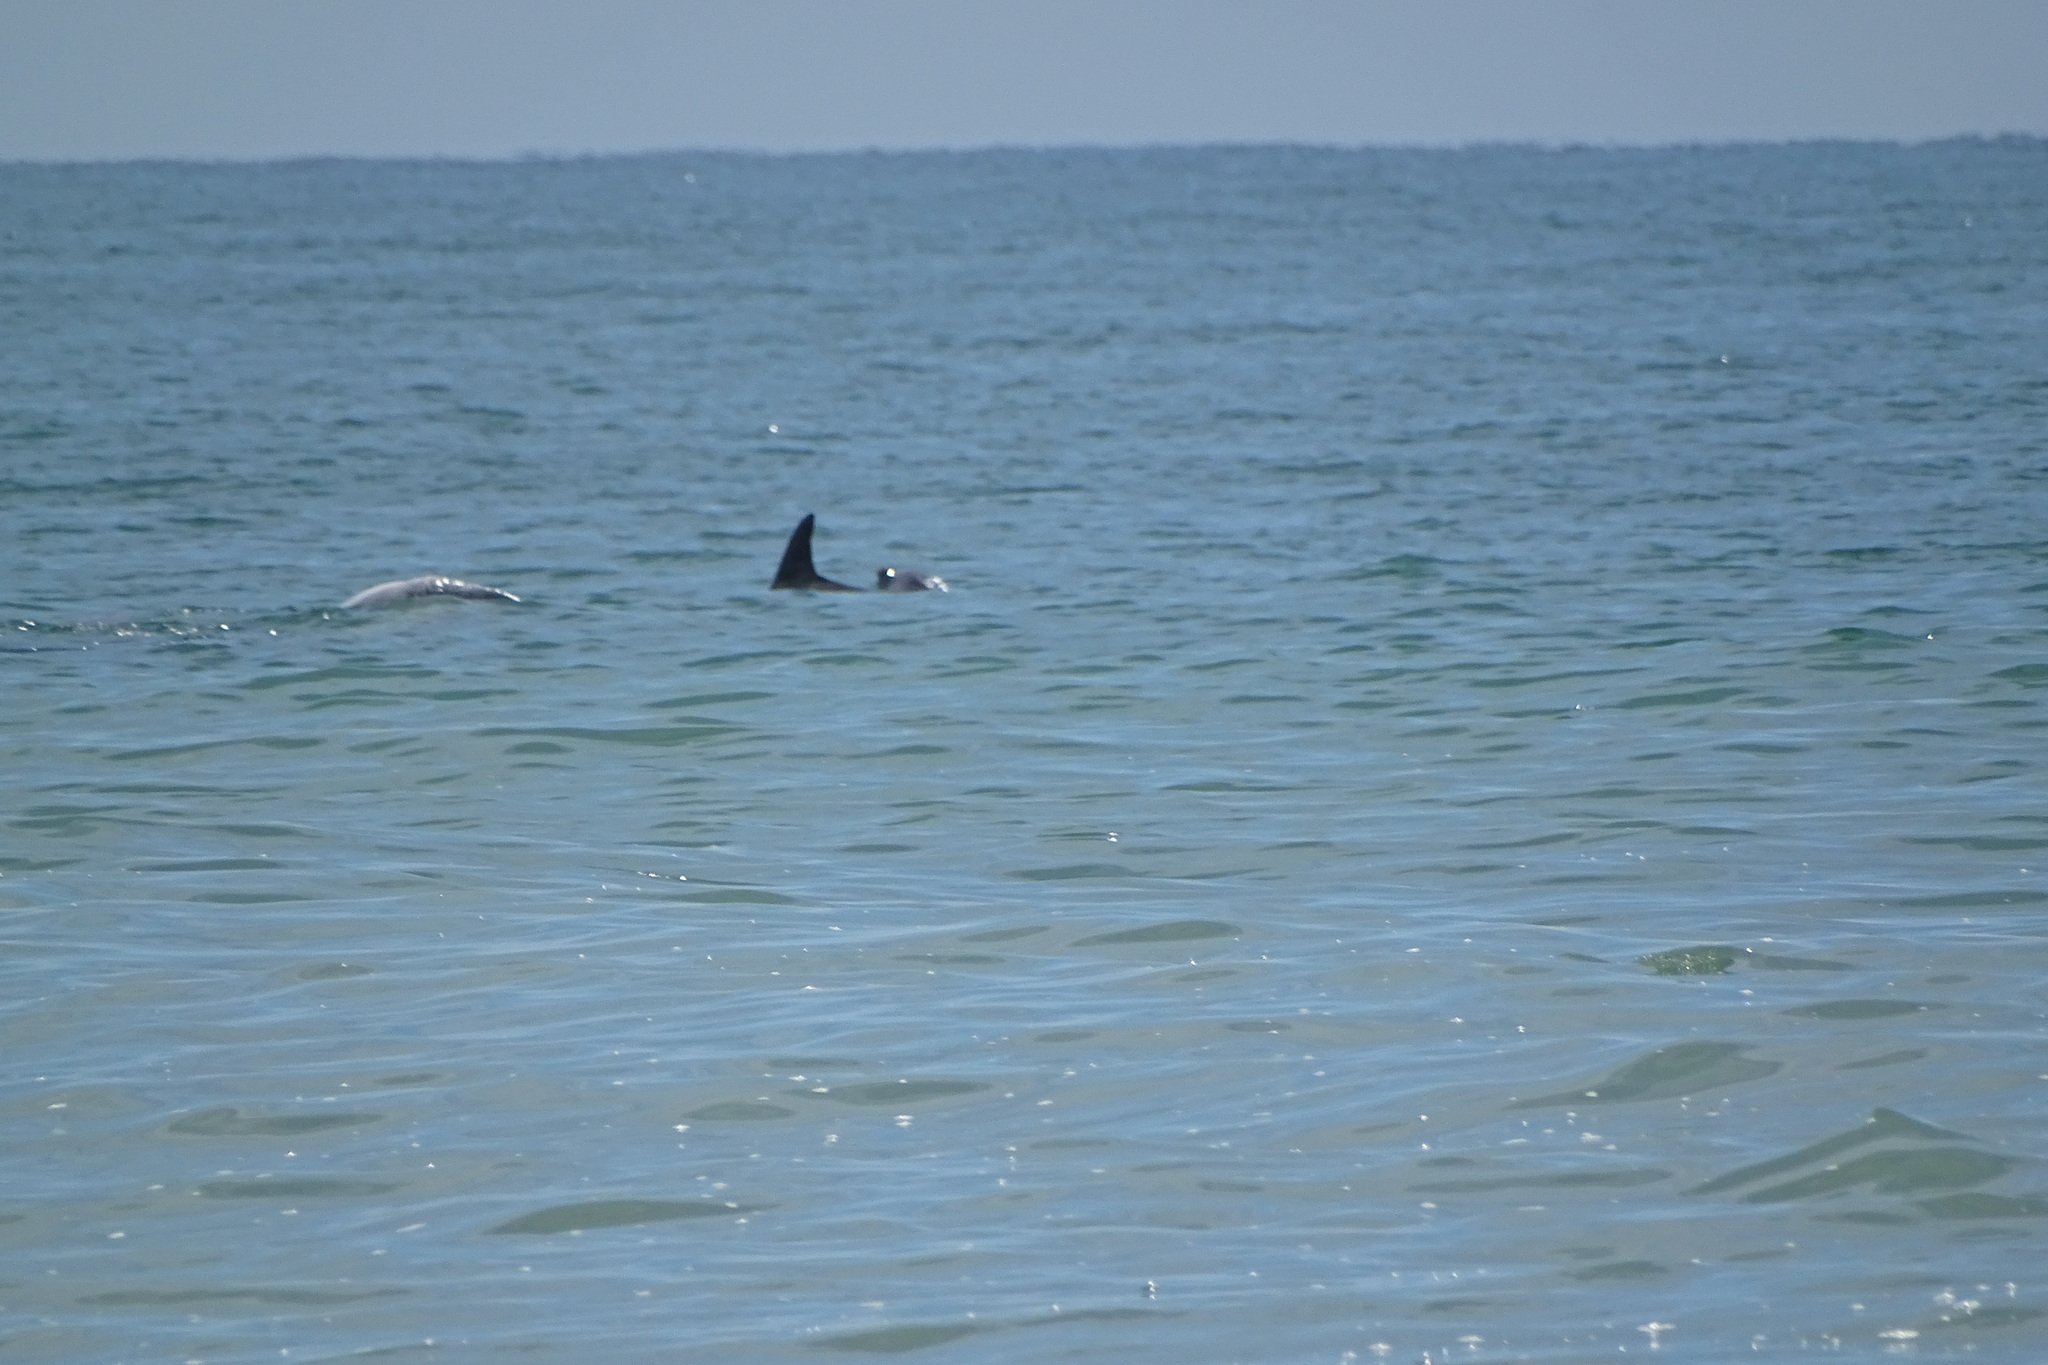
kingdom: Animalia
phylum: Chordata
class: Mammalia
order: Cetacea
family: Delphinidae
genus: Tursiops
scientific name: Tursiops truncatus
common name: Bottlenose dolphin
